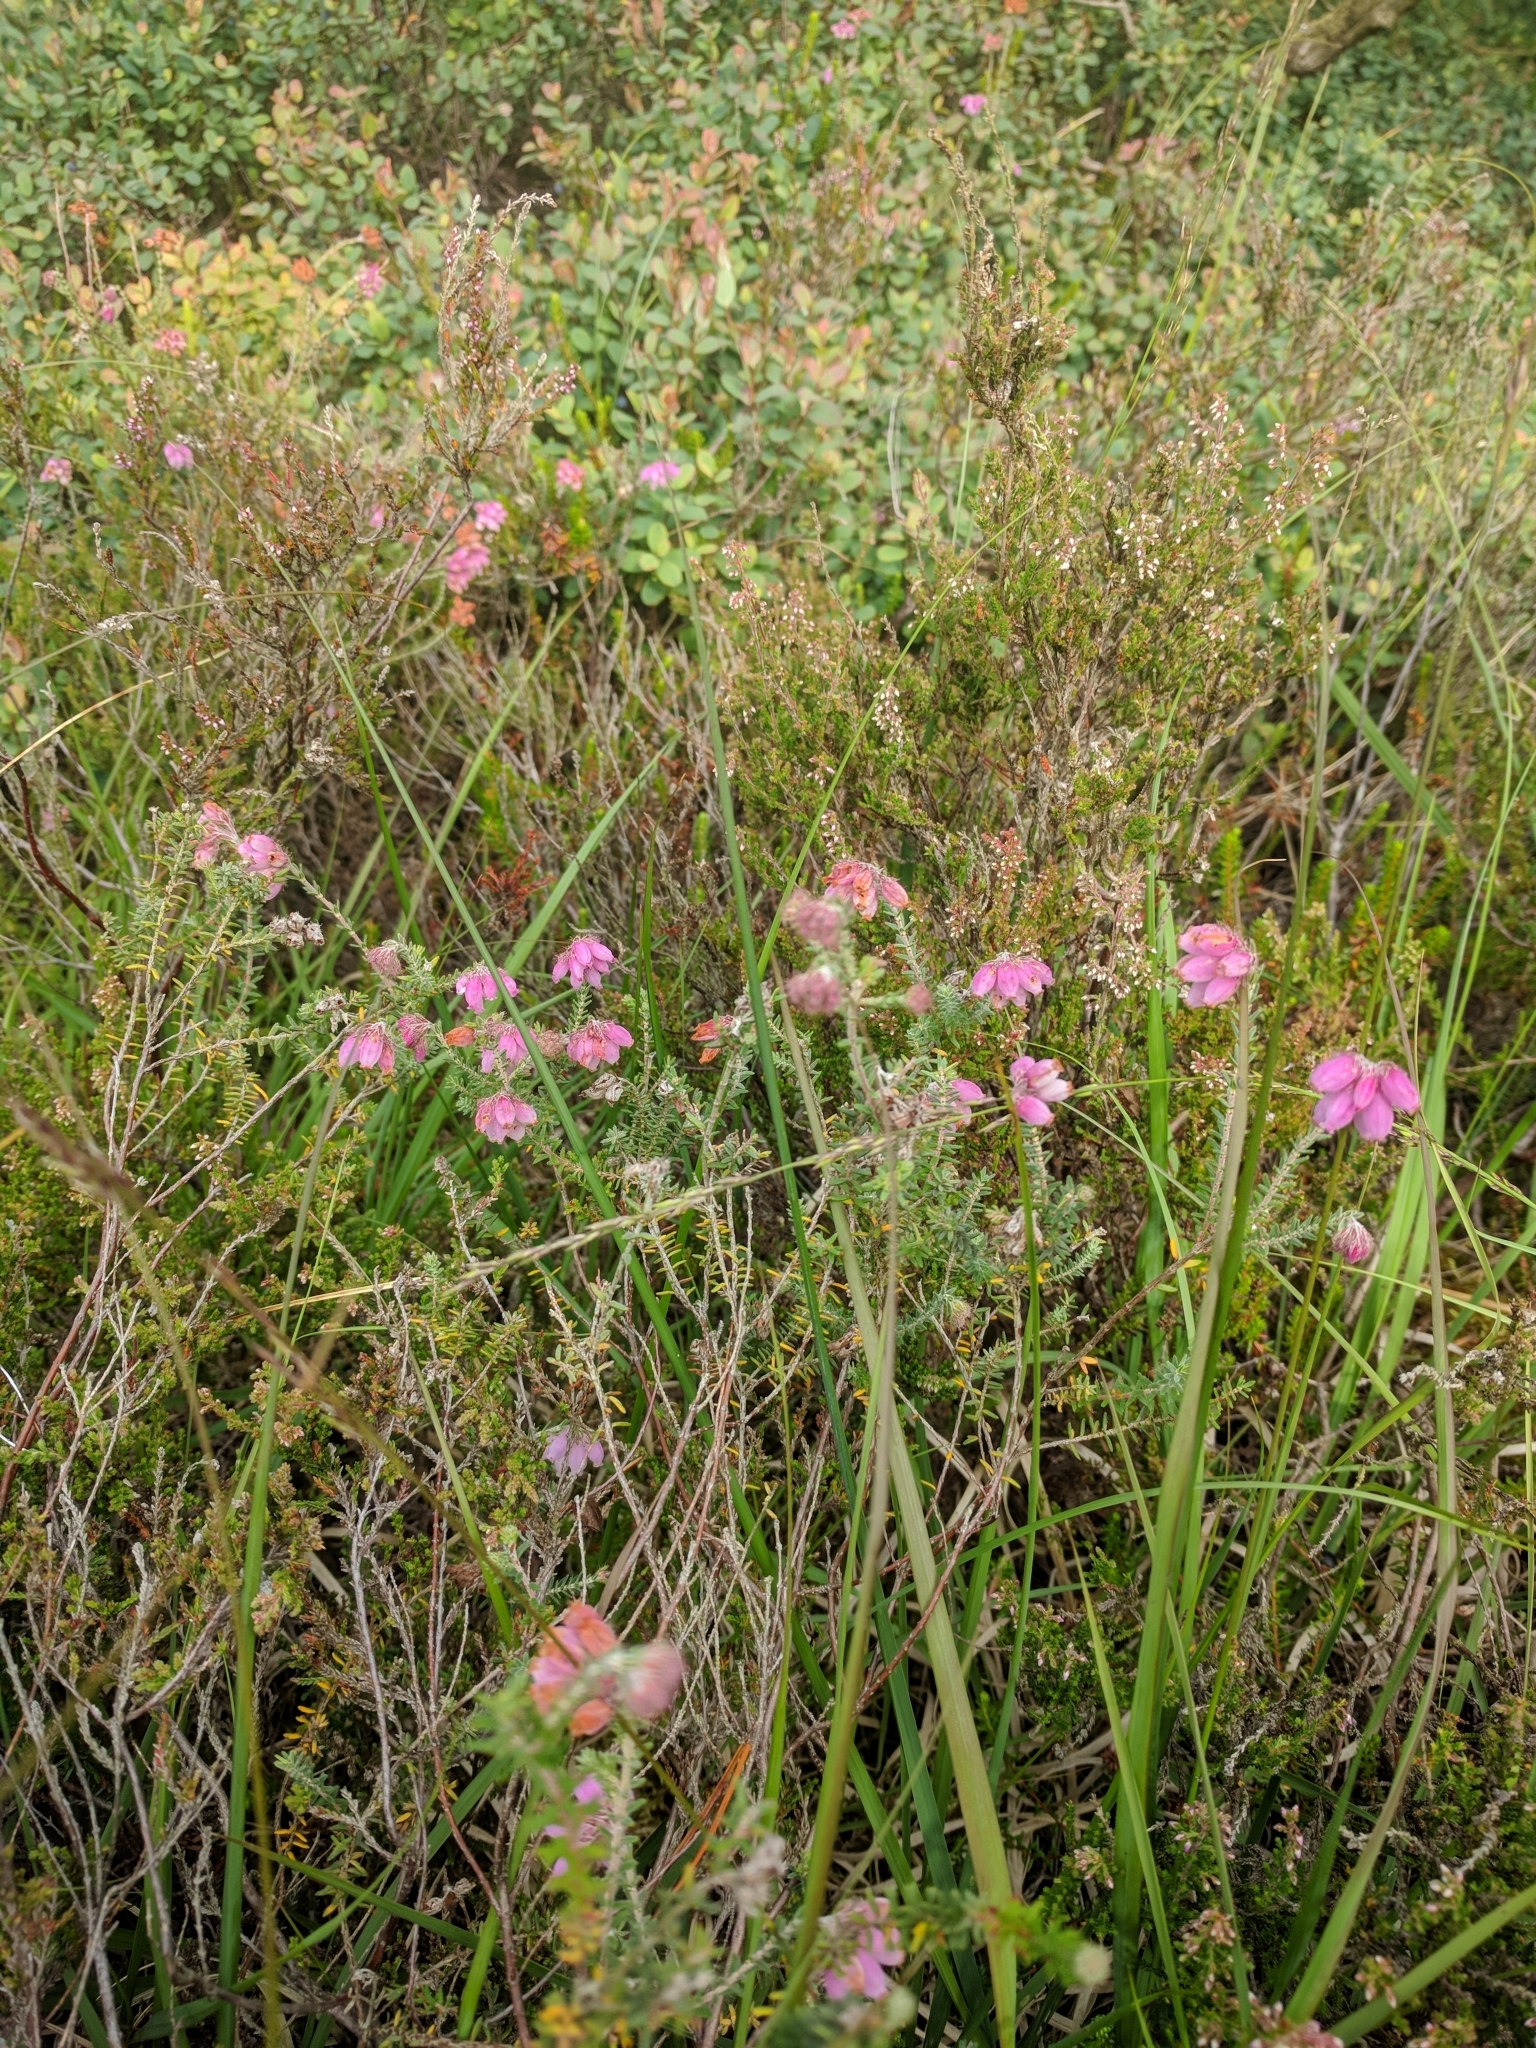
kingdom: Plantae
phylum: Tracheophyta
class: Magnoliopsida
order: Ericales
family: Ericaceae
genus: Erica
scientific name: Erica tetralix
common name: Cross-leaved heath
